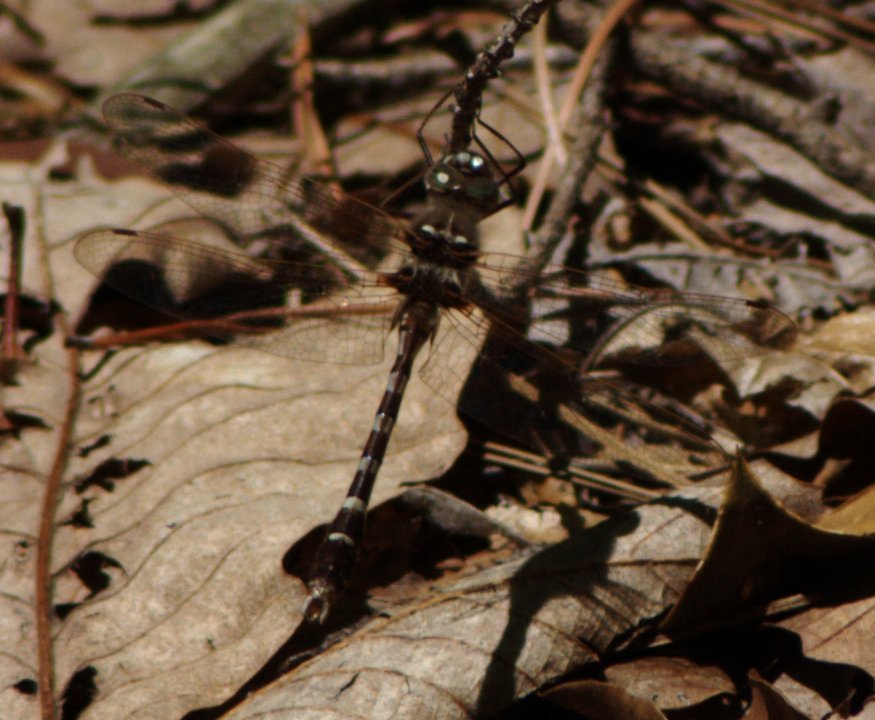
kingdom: Animalia
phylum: Arthropoda
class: Insecta
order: Odonata
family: Macromiidae
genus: Didymops
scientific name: Didymops transversa
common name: Stream cruiser
